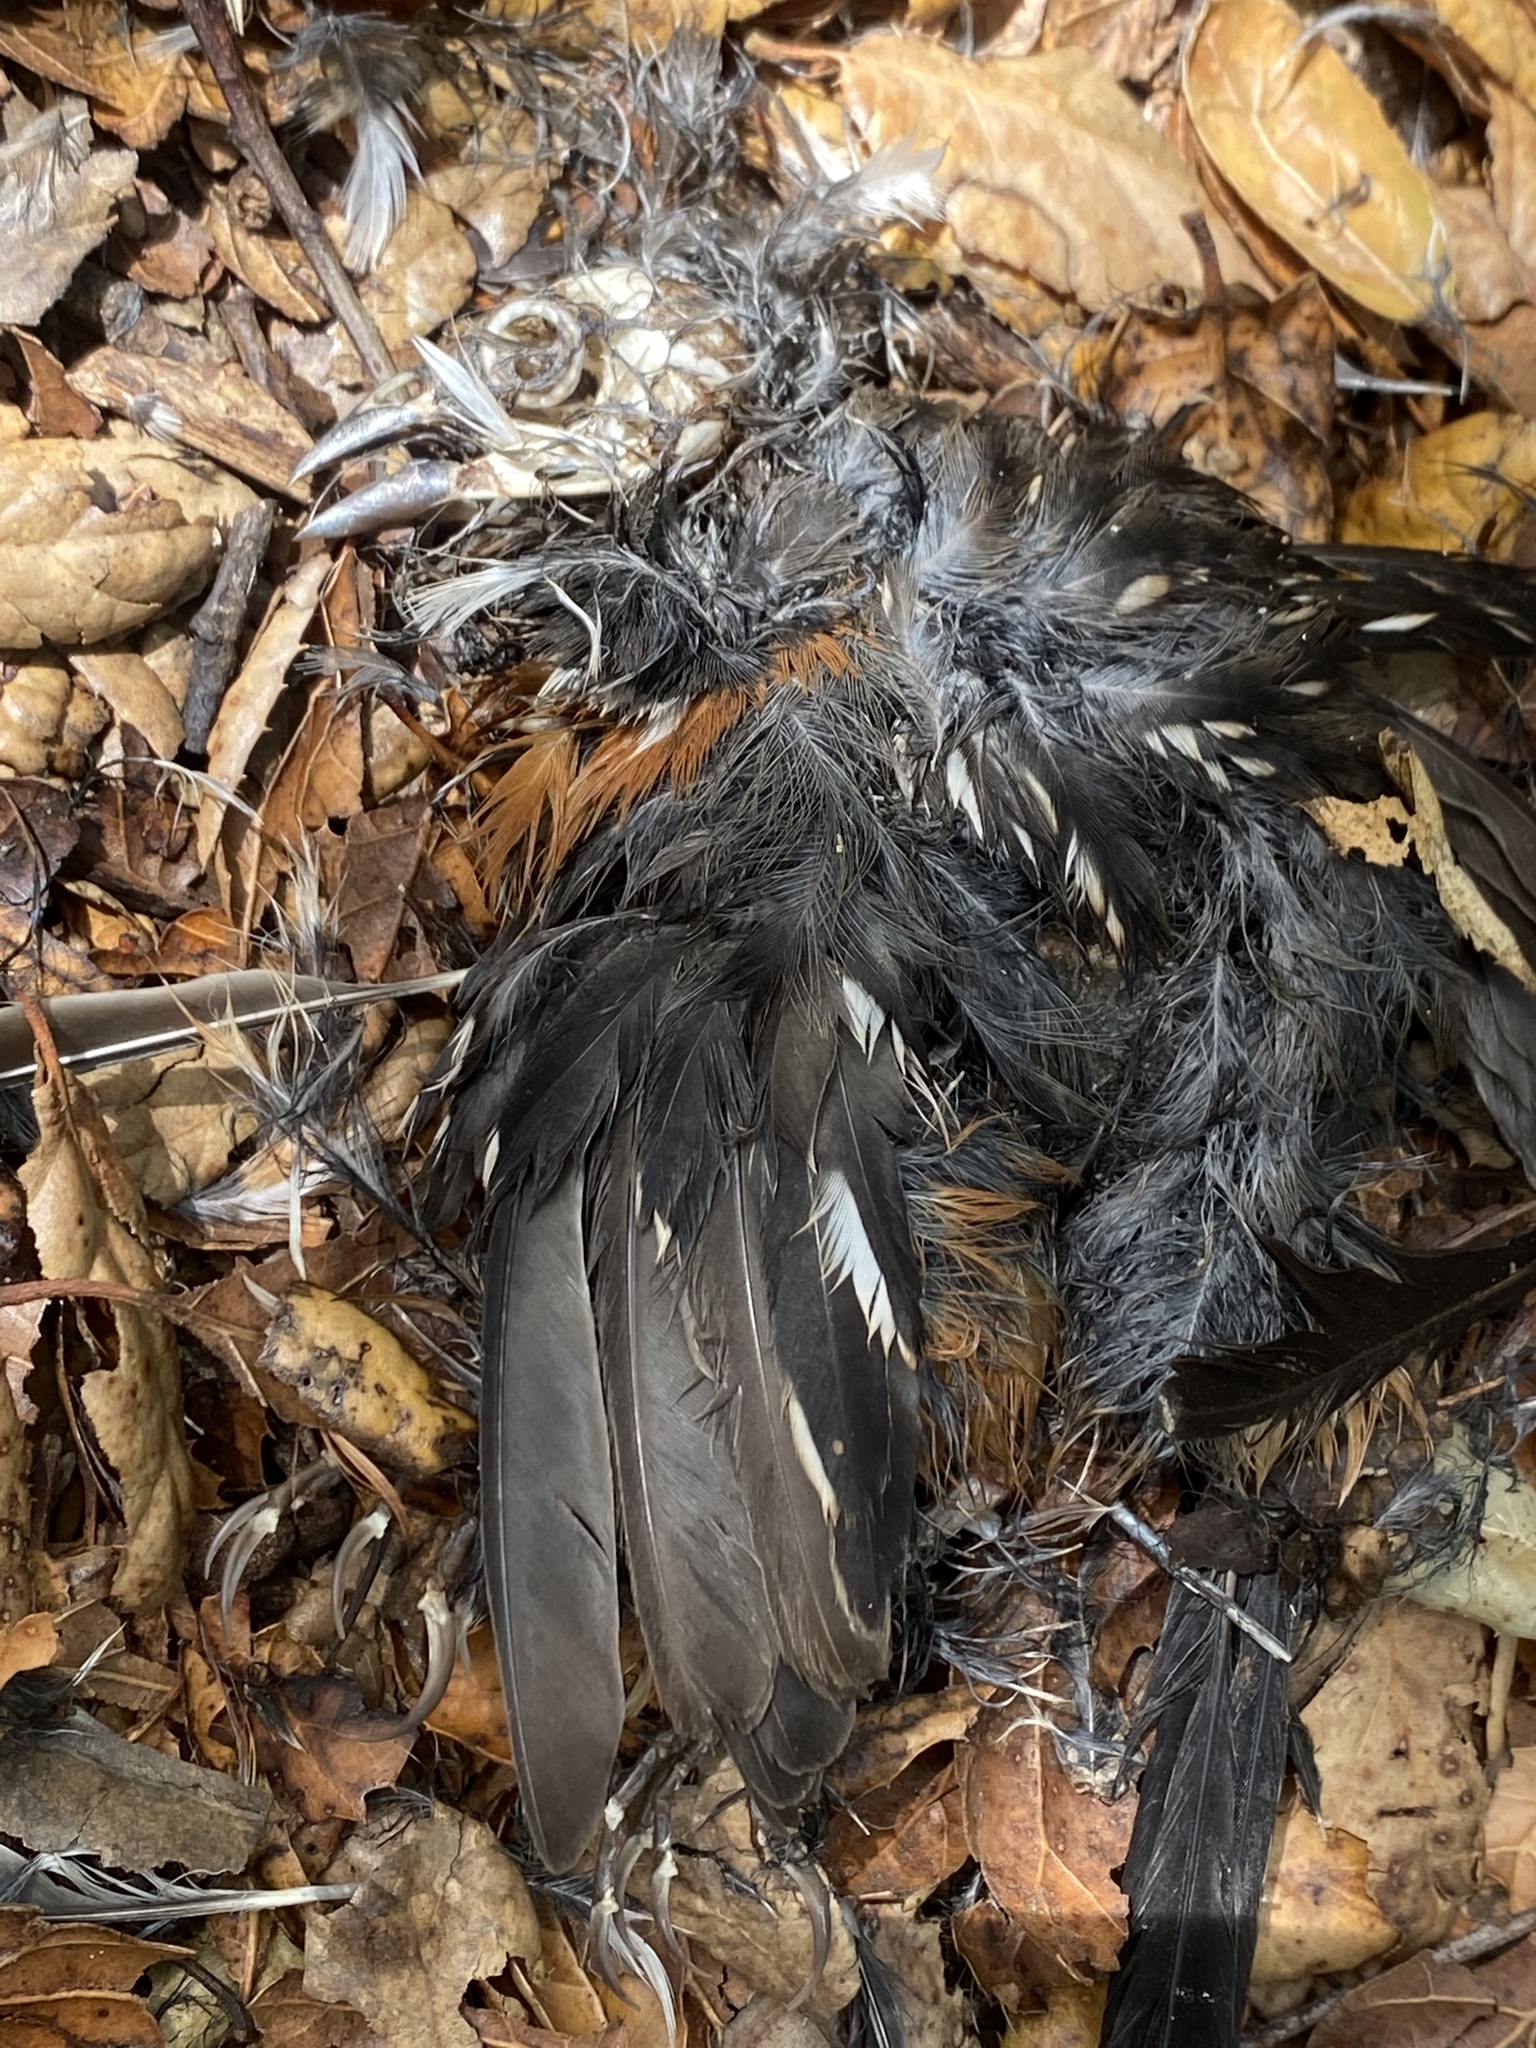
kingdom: Animalia
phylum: Chordata
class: Aves
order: Passeriformes
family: Passerellidae
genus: Pipilo
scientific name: Pipilo maculatus
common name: Spotted towhee
